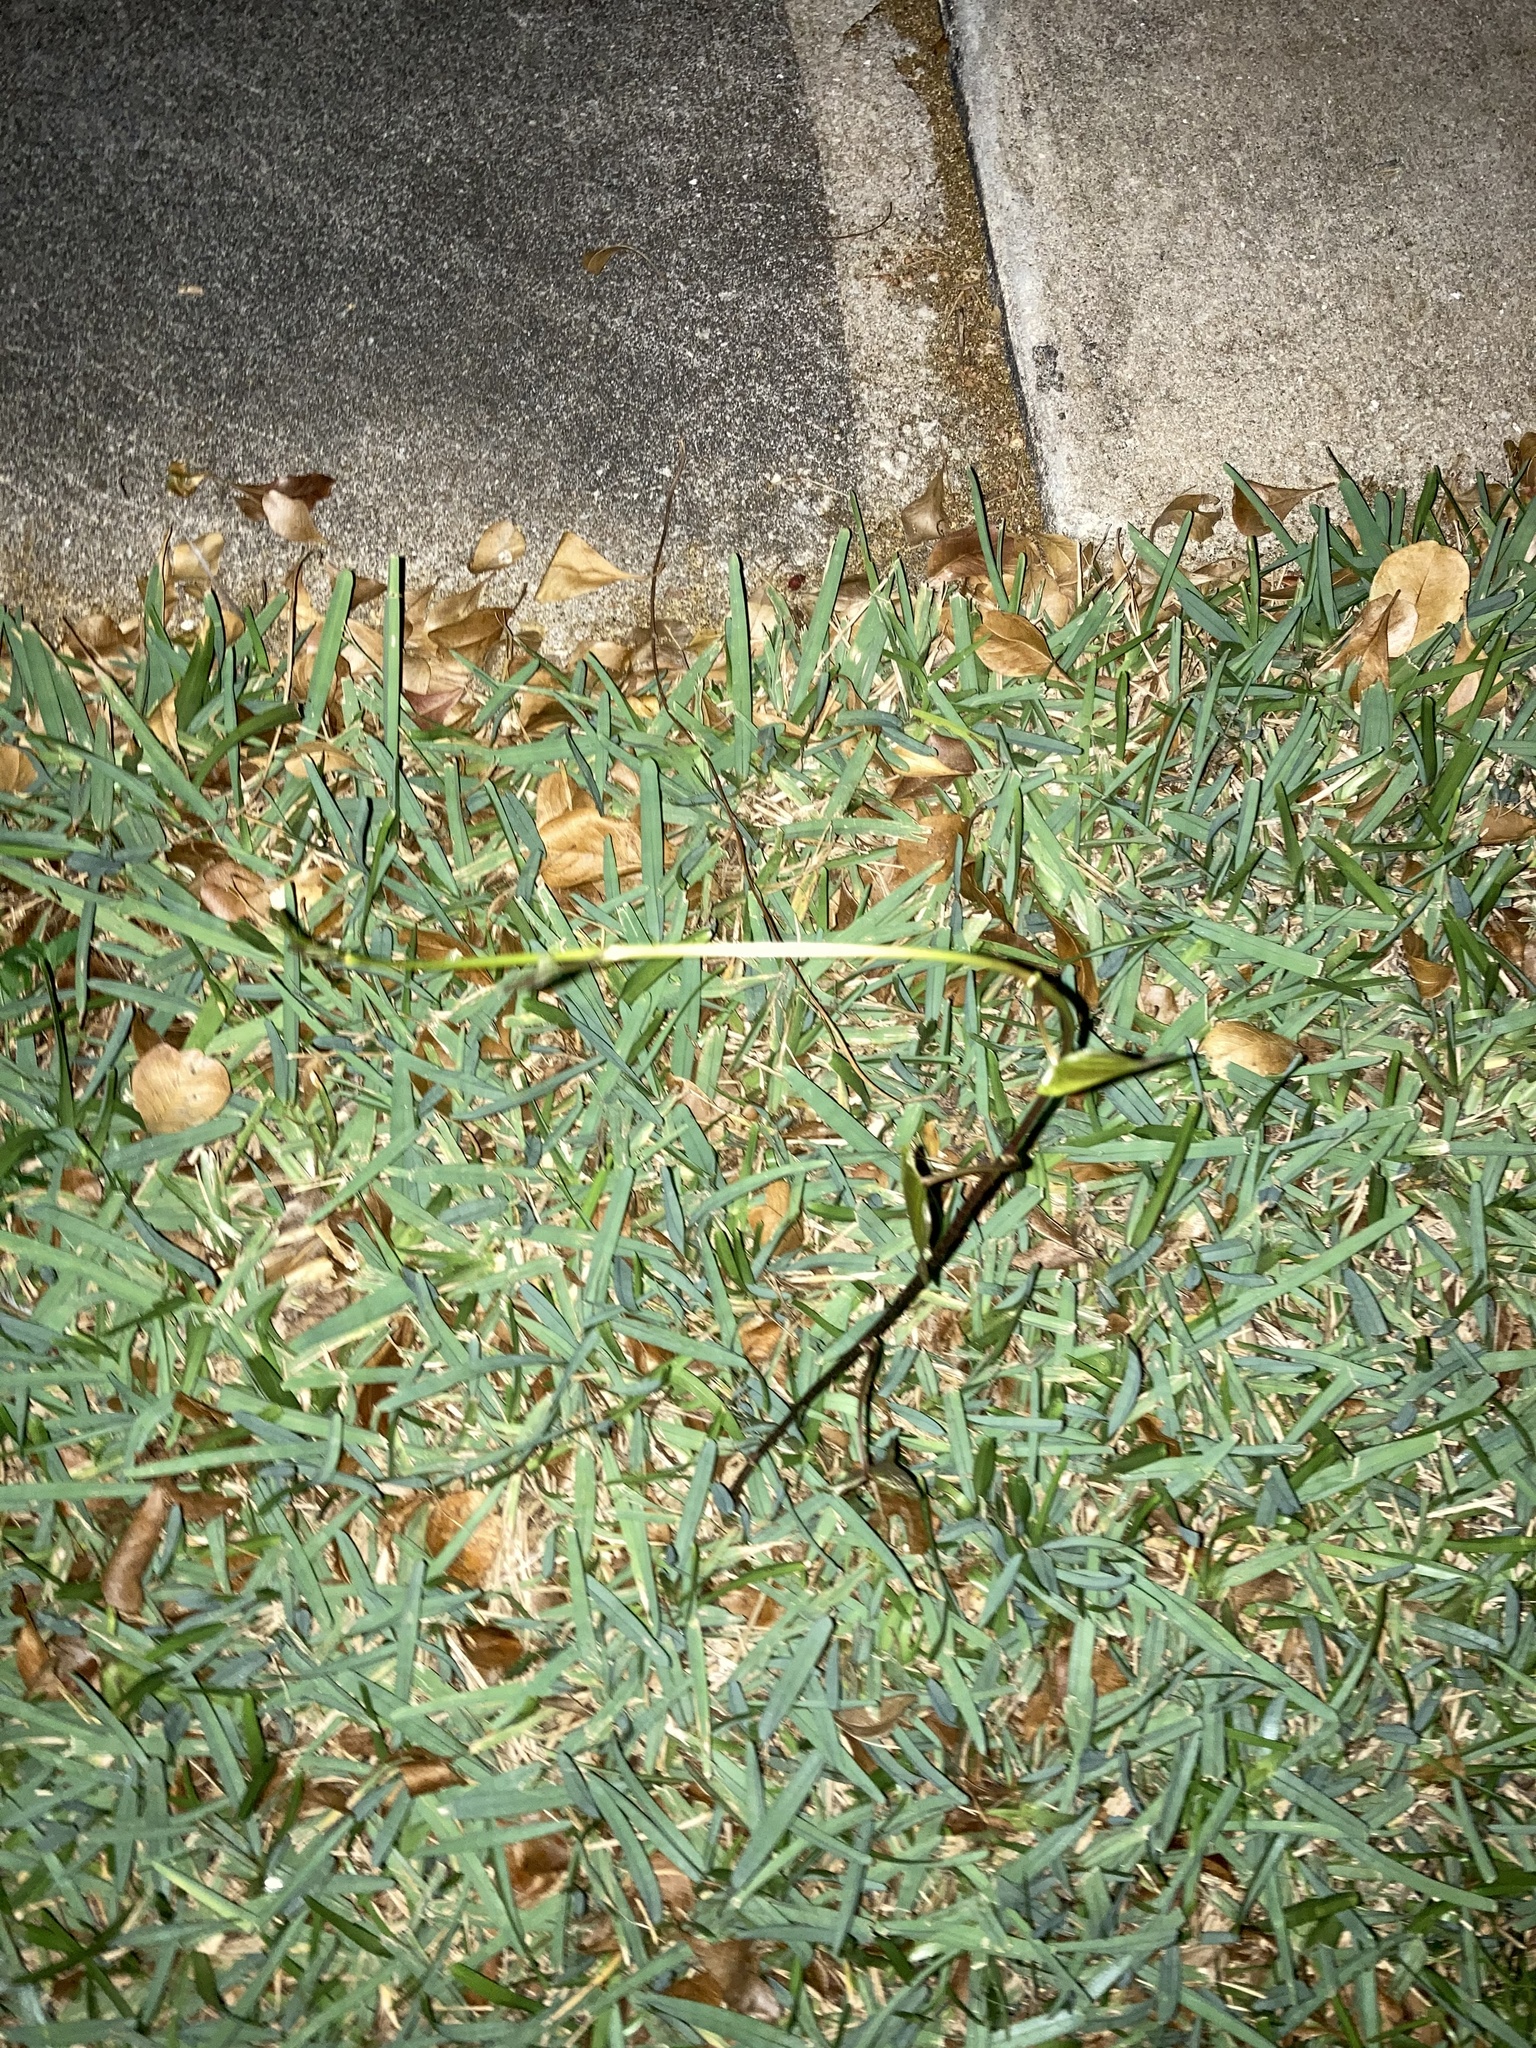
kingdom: Plantae
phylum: Tracheophyta
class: Liliopsida
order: Dioscoreales
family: Dioscoreaceae
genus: Dioscorea
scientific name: Dioscorea bulbifera
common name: Air yam
